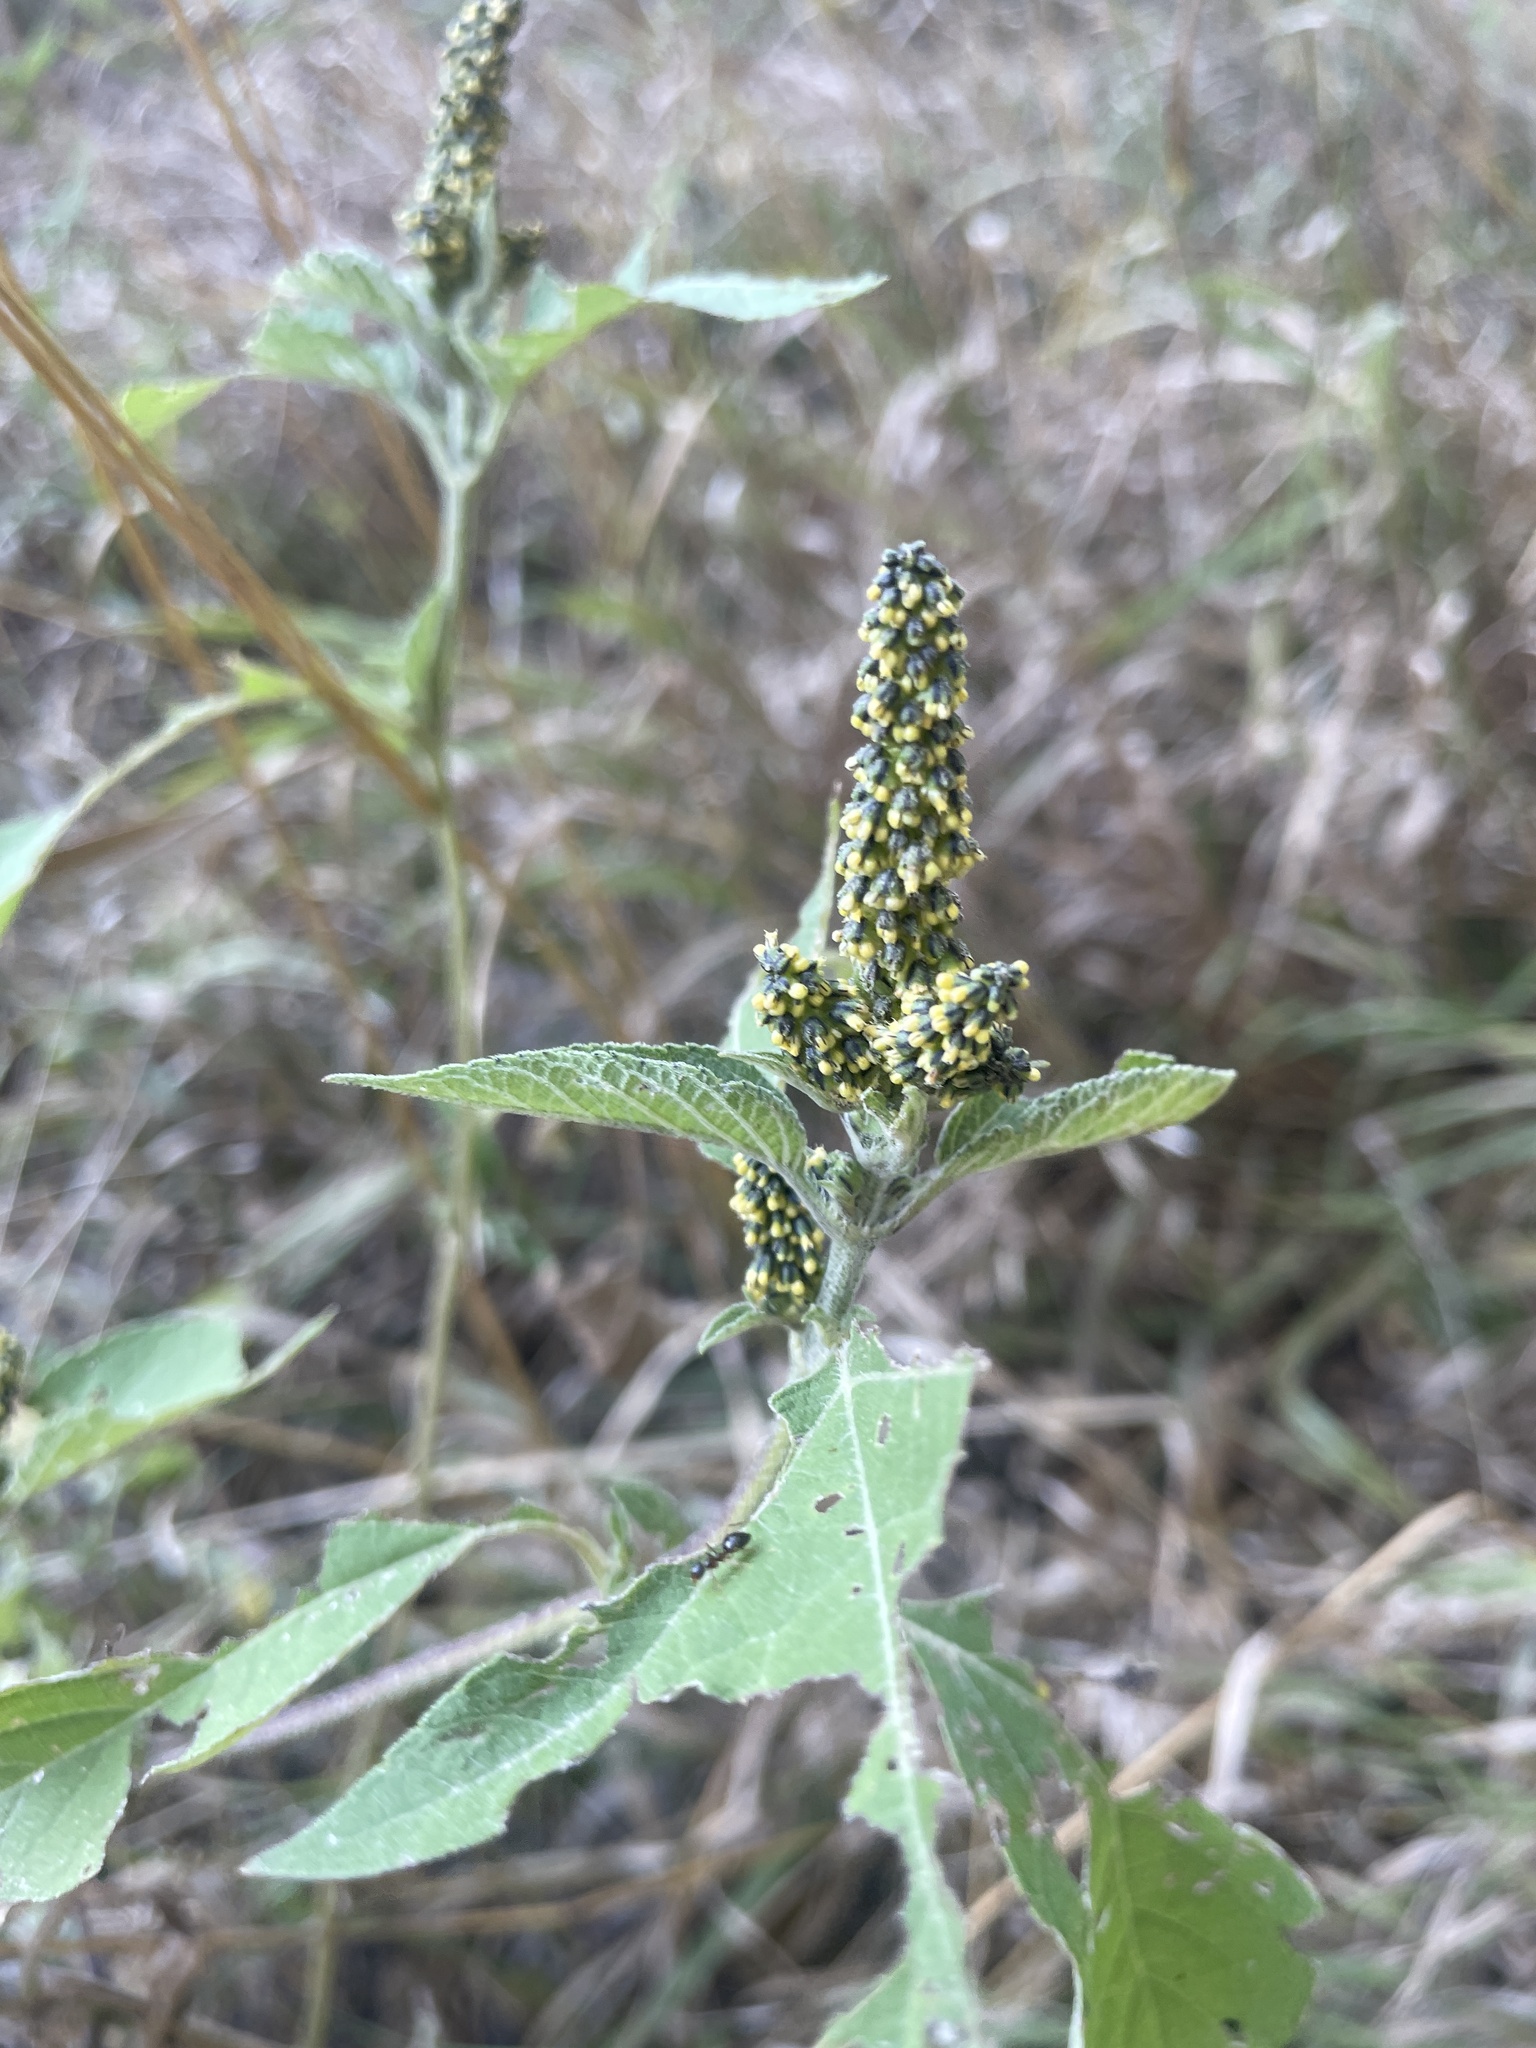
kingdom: Plantae
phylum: Tracheophyta
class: Magnoliopsida
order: Asterales
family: Asteraceae
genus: Ambrosia
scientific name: Ambrosia trifida
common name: Giant ragweed
